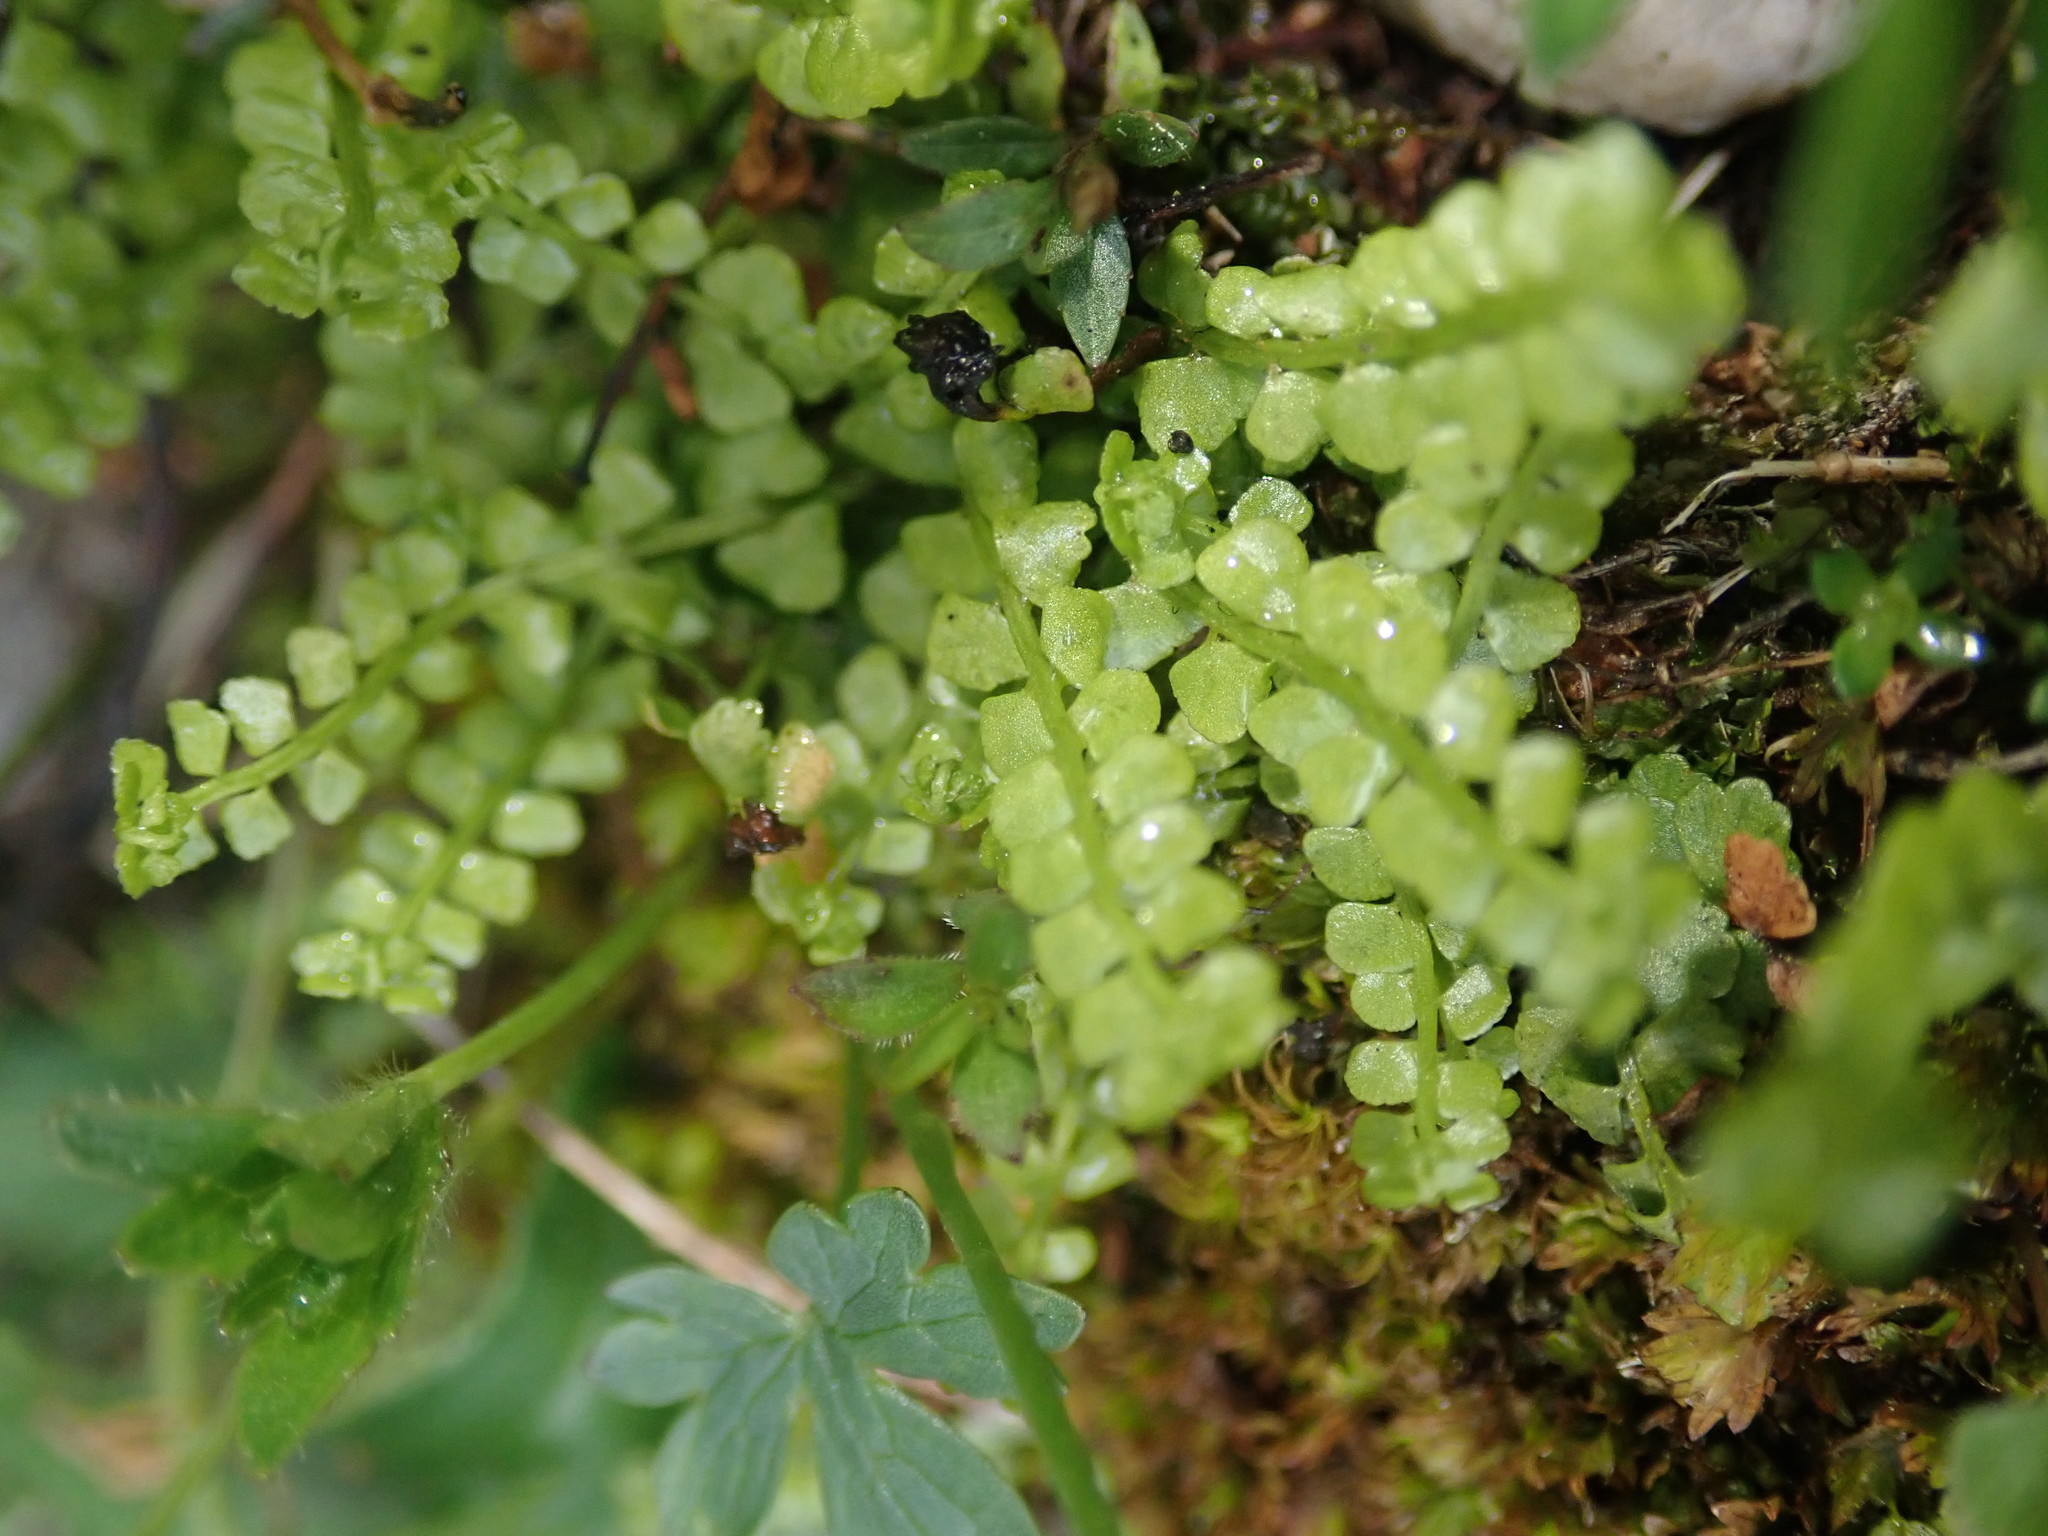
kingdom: Plantae
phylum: Tracheophyta
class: Polypodiopsida
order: Polypodiales
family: Aspleniaceae
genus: Asplenium
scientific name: Asplenium viride
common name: Green spleenwort
